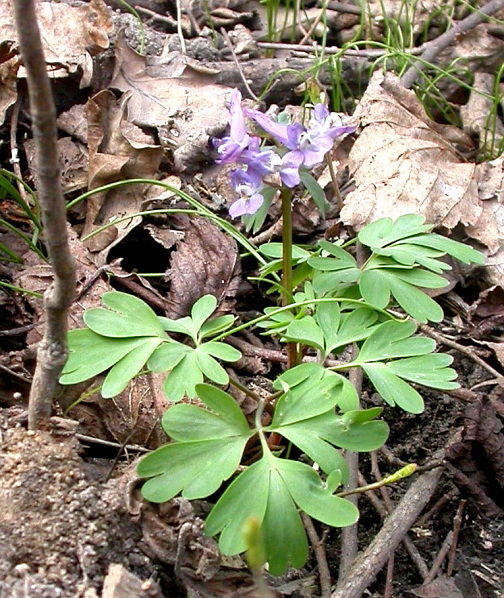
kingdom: Plantae
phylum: Tracheophyta
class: Magnoliopsida
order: Ranunculales
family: Papaveraceae
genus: Corydalis
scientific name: Corydalis solida
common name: Bird-in-a-bush
